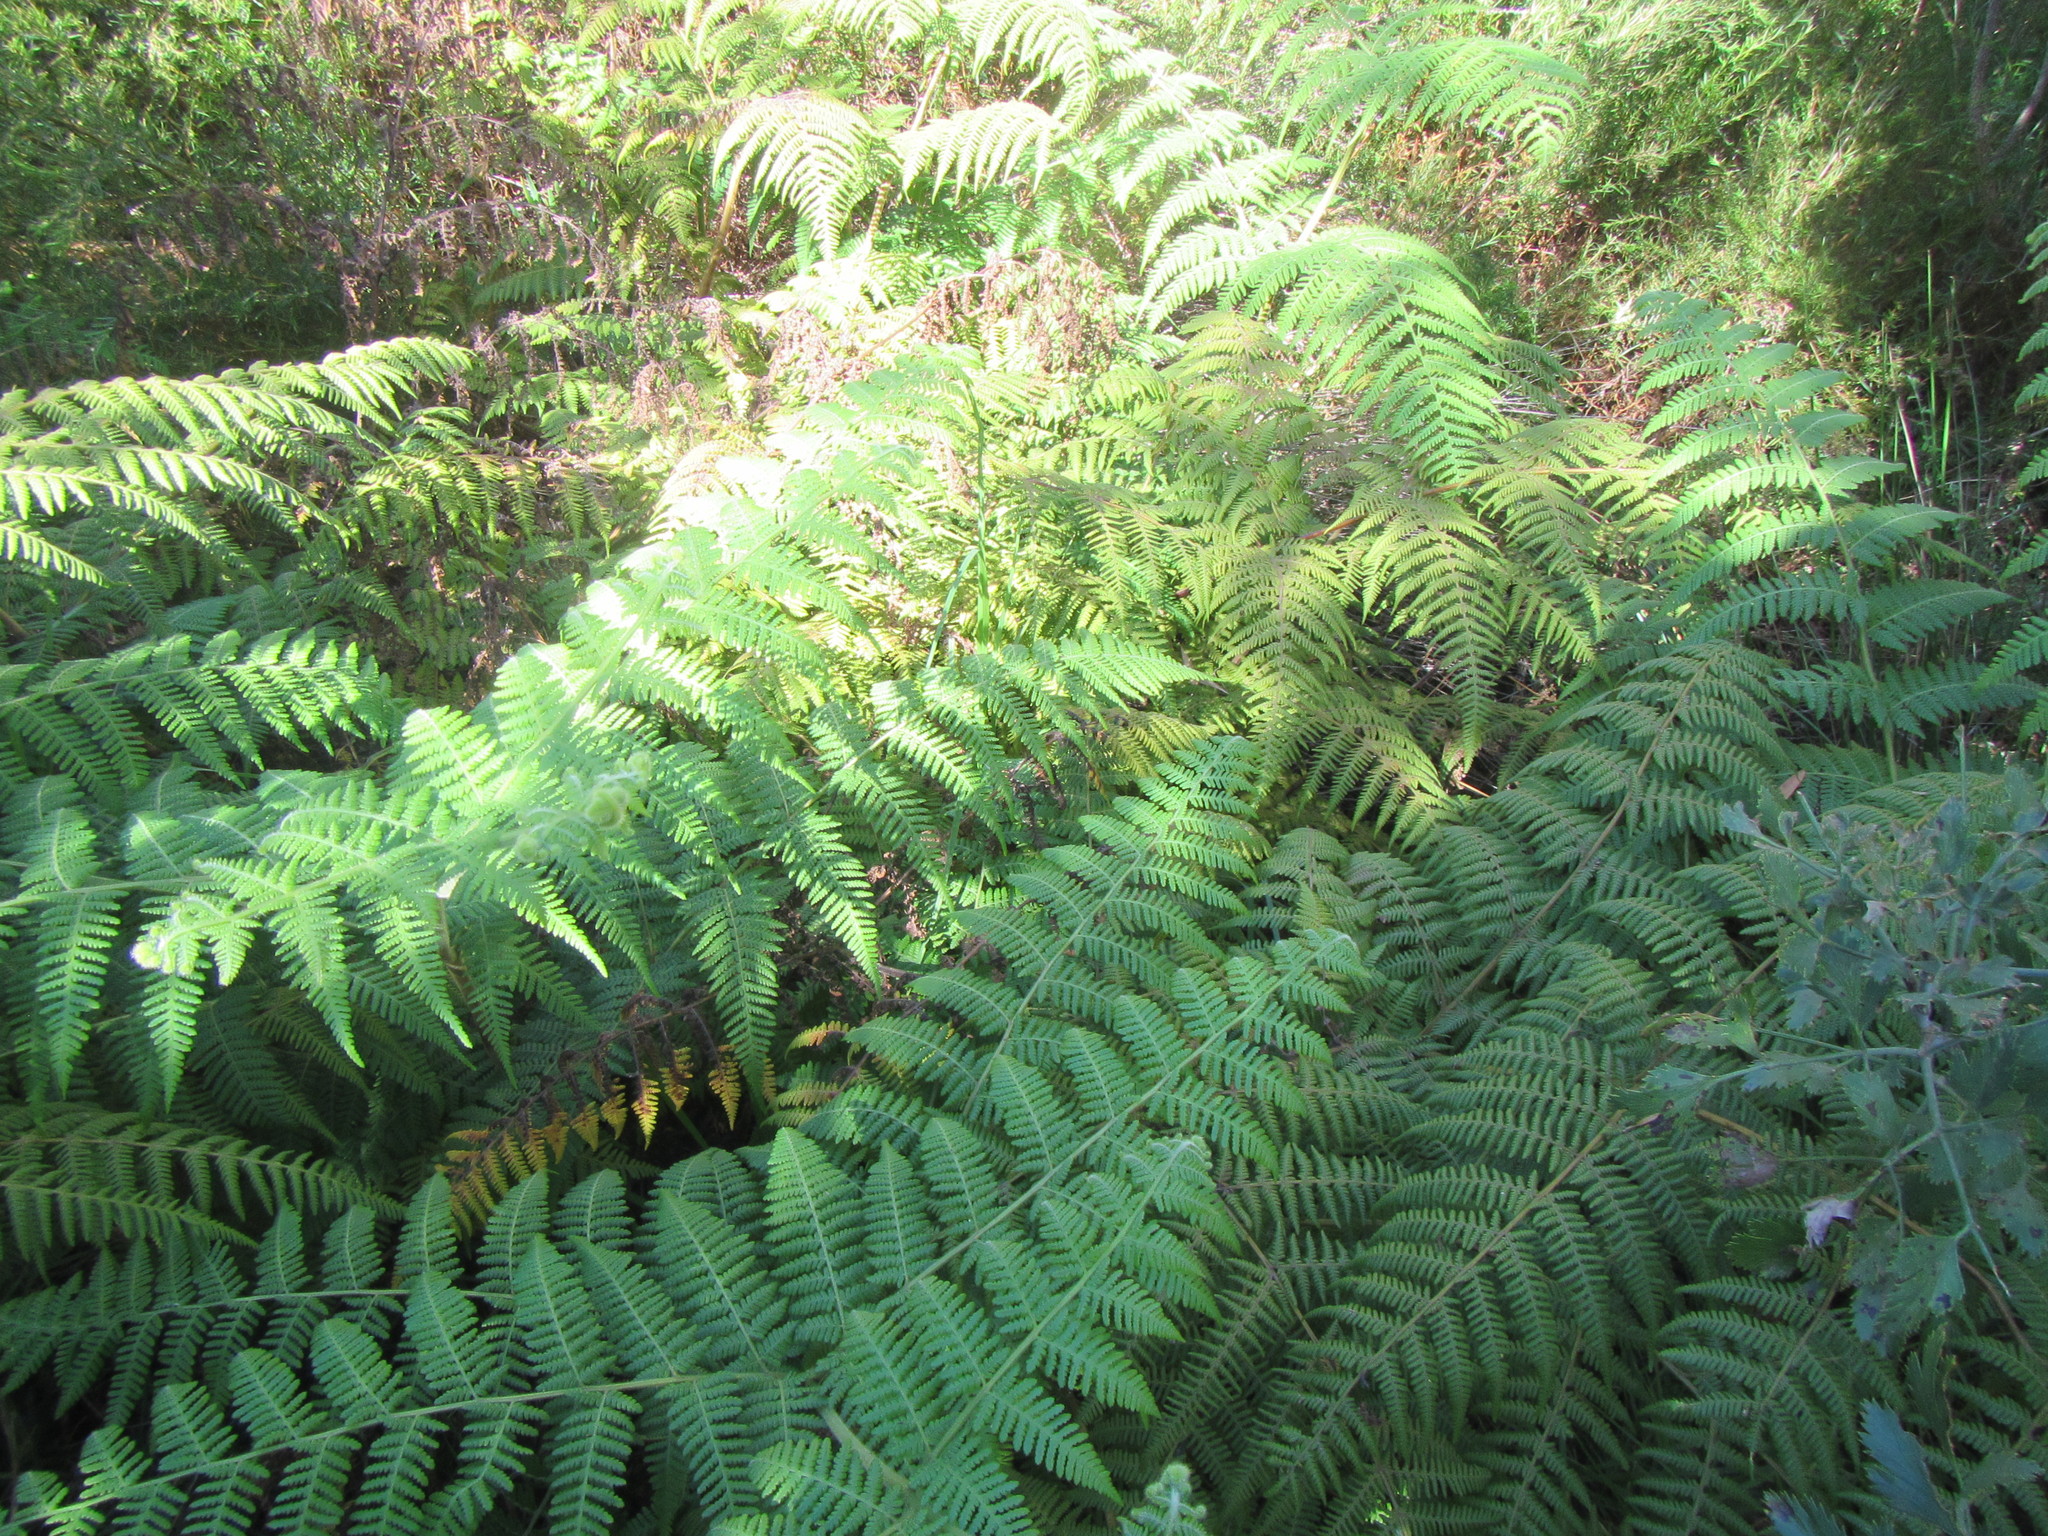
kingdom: Plantae
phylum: Tracheophyta
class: Polypodiopsida
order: Polypodiales
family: Dennstaedtiaceae
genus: Hypolepis
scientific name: Hypolepis rugosula
